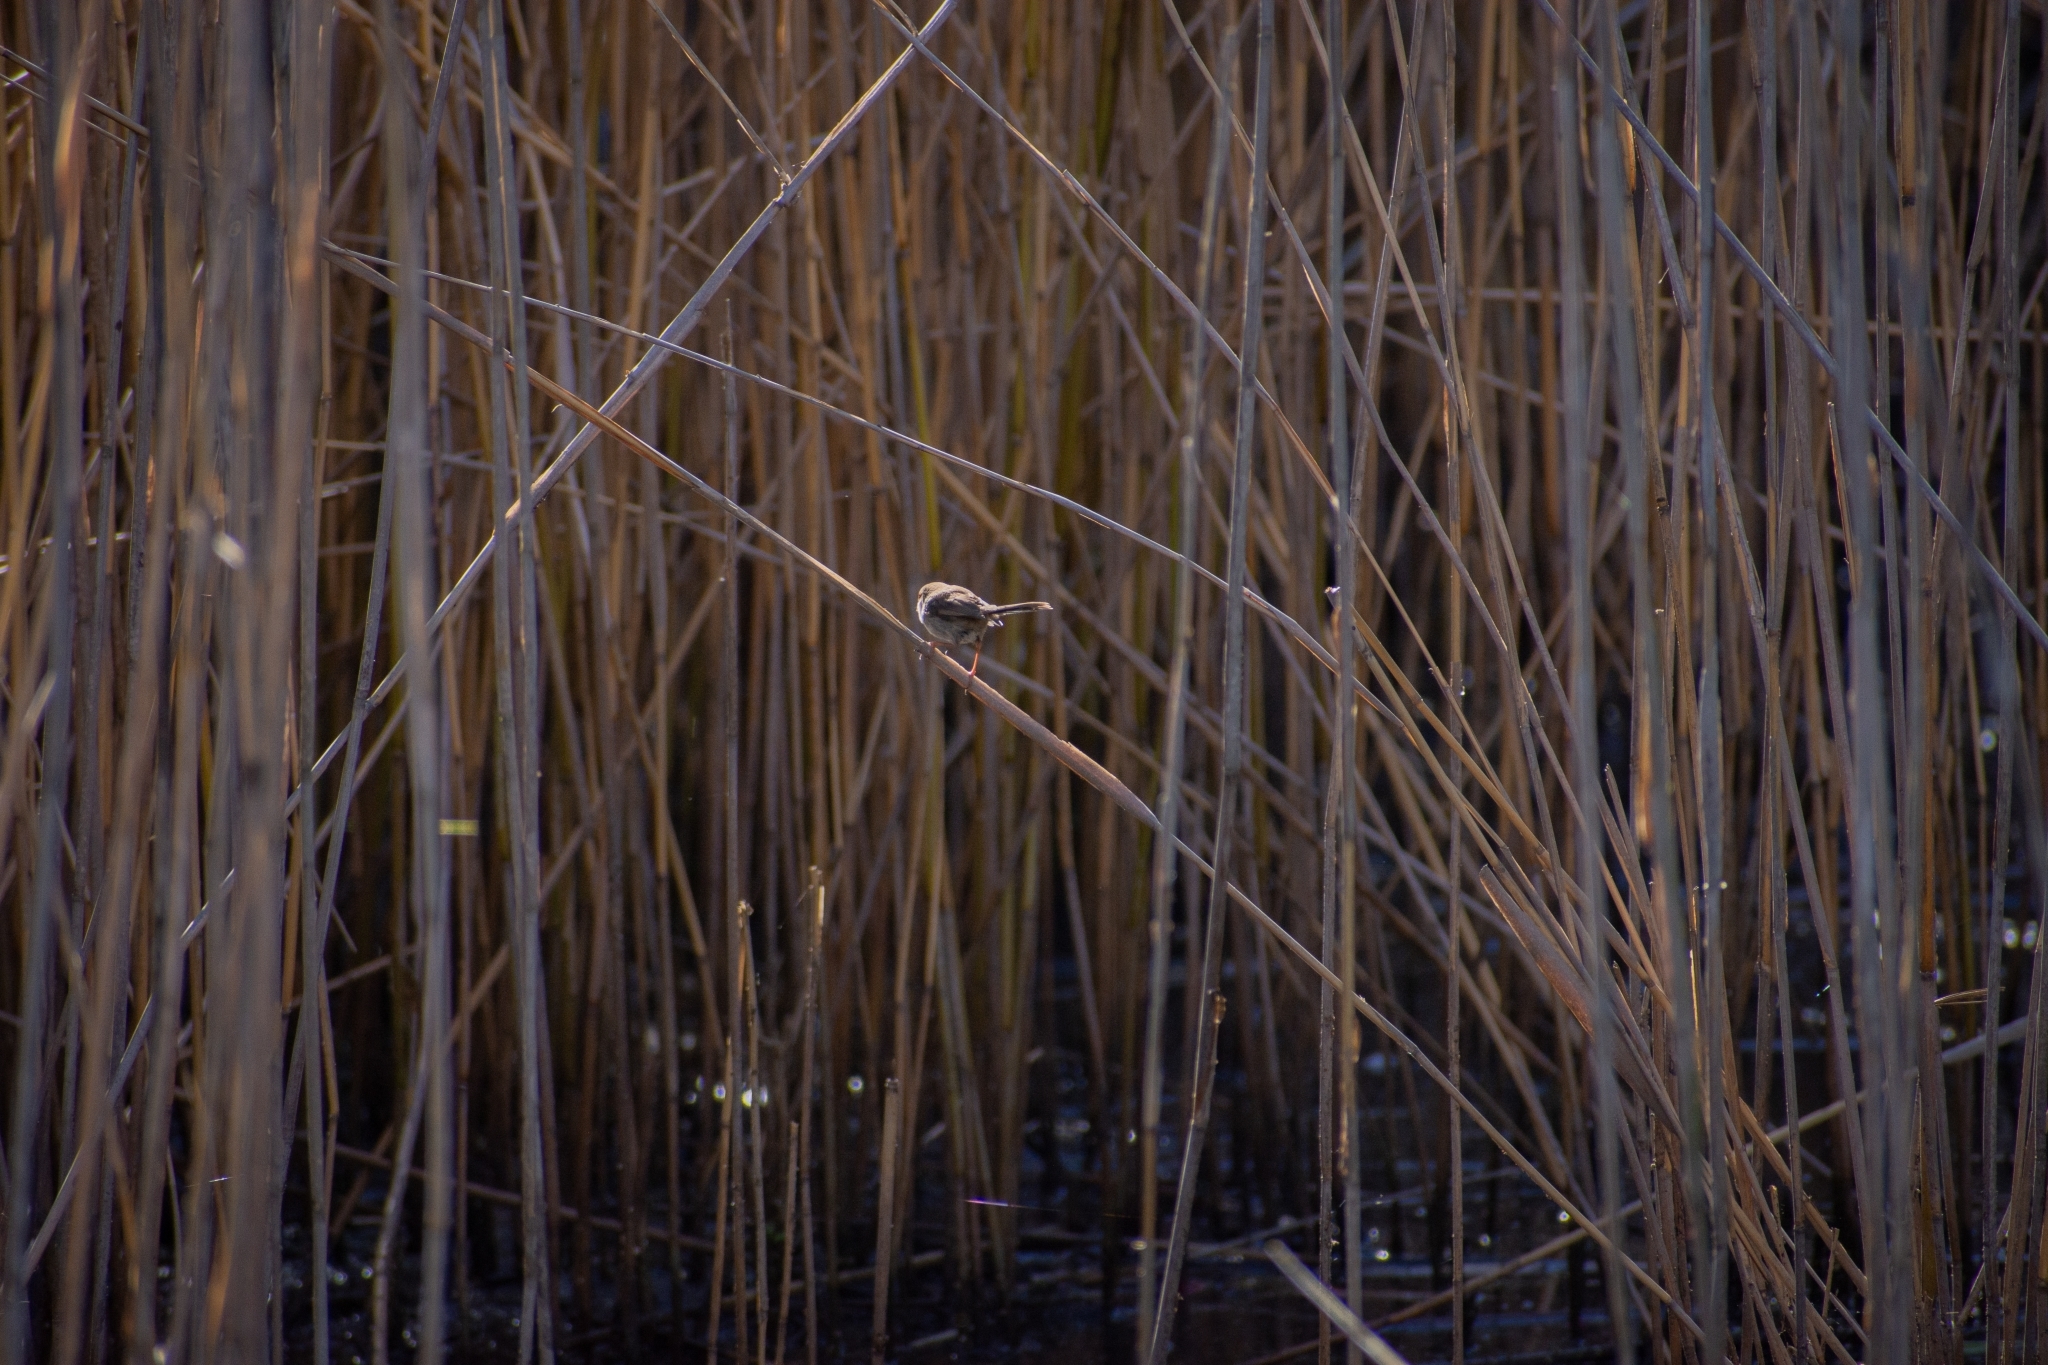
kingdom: Animalia
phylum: Chordata
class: Aves
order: Passeriformes
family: Maluridae
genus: Malurus
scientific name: Malurus cyaneus
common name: Superb fairywren
